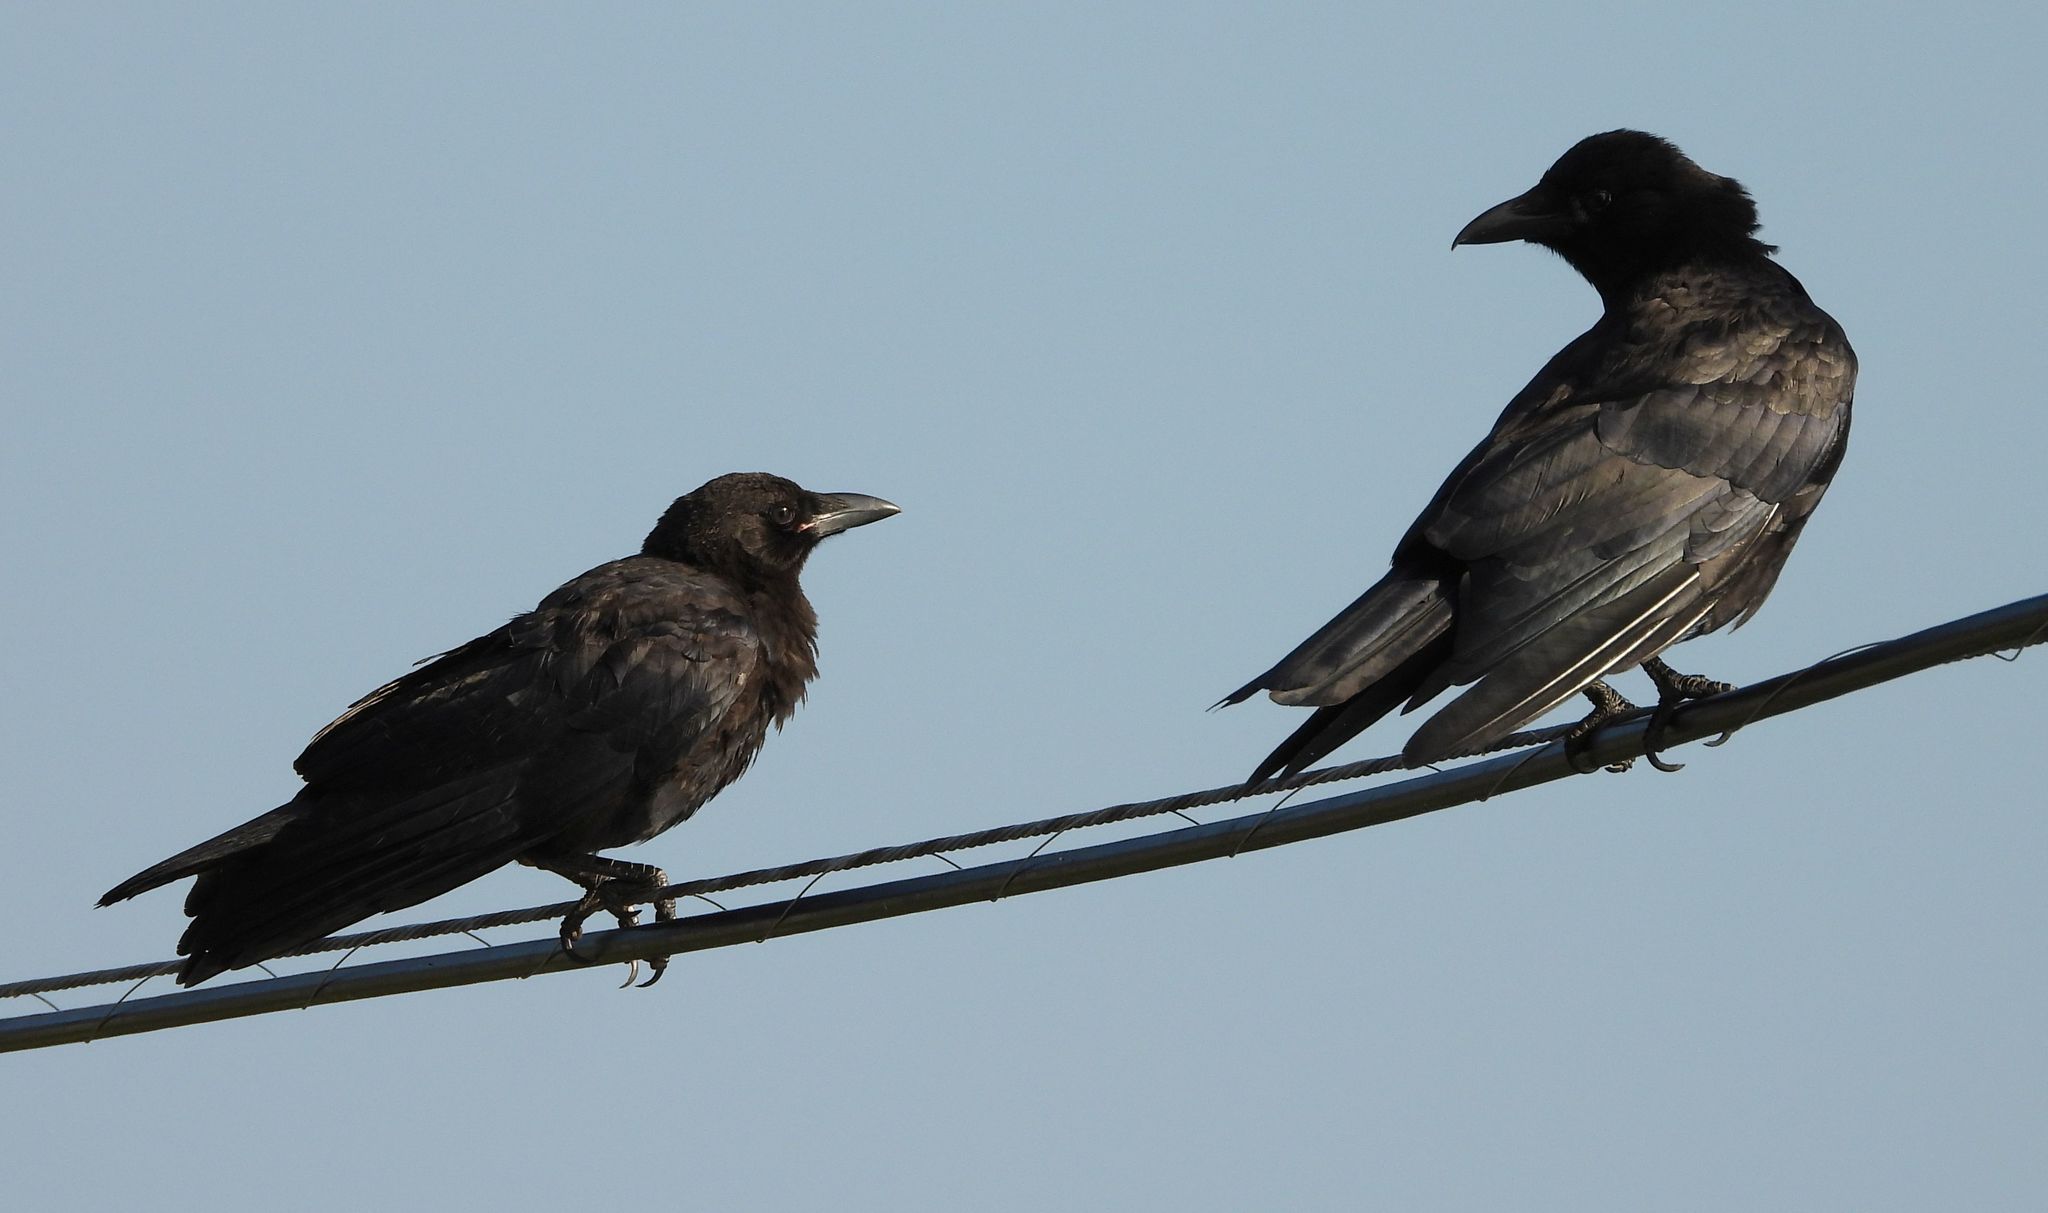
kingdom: Animalia
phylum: Chordata
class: Aves
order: Passeriformes
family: Corvidae
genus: Corvus
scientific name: Corvus brachyrhynchos
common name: American crow
